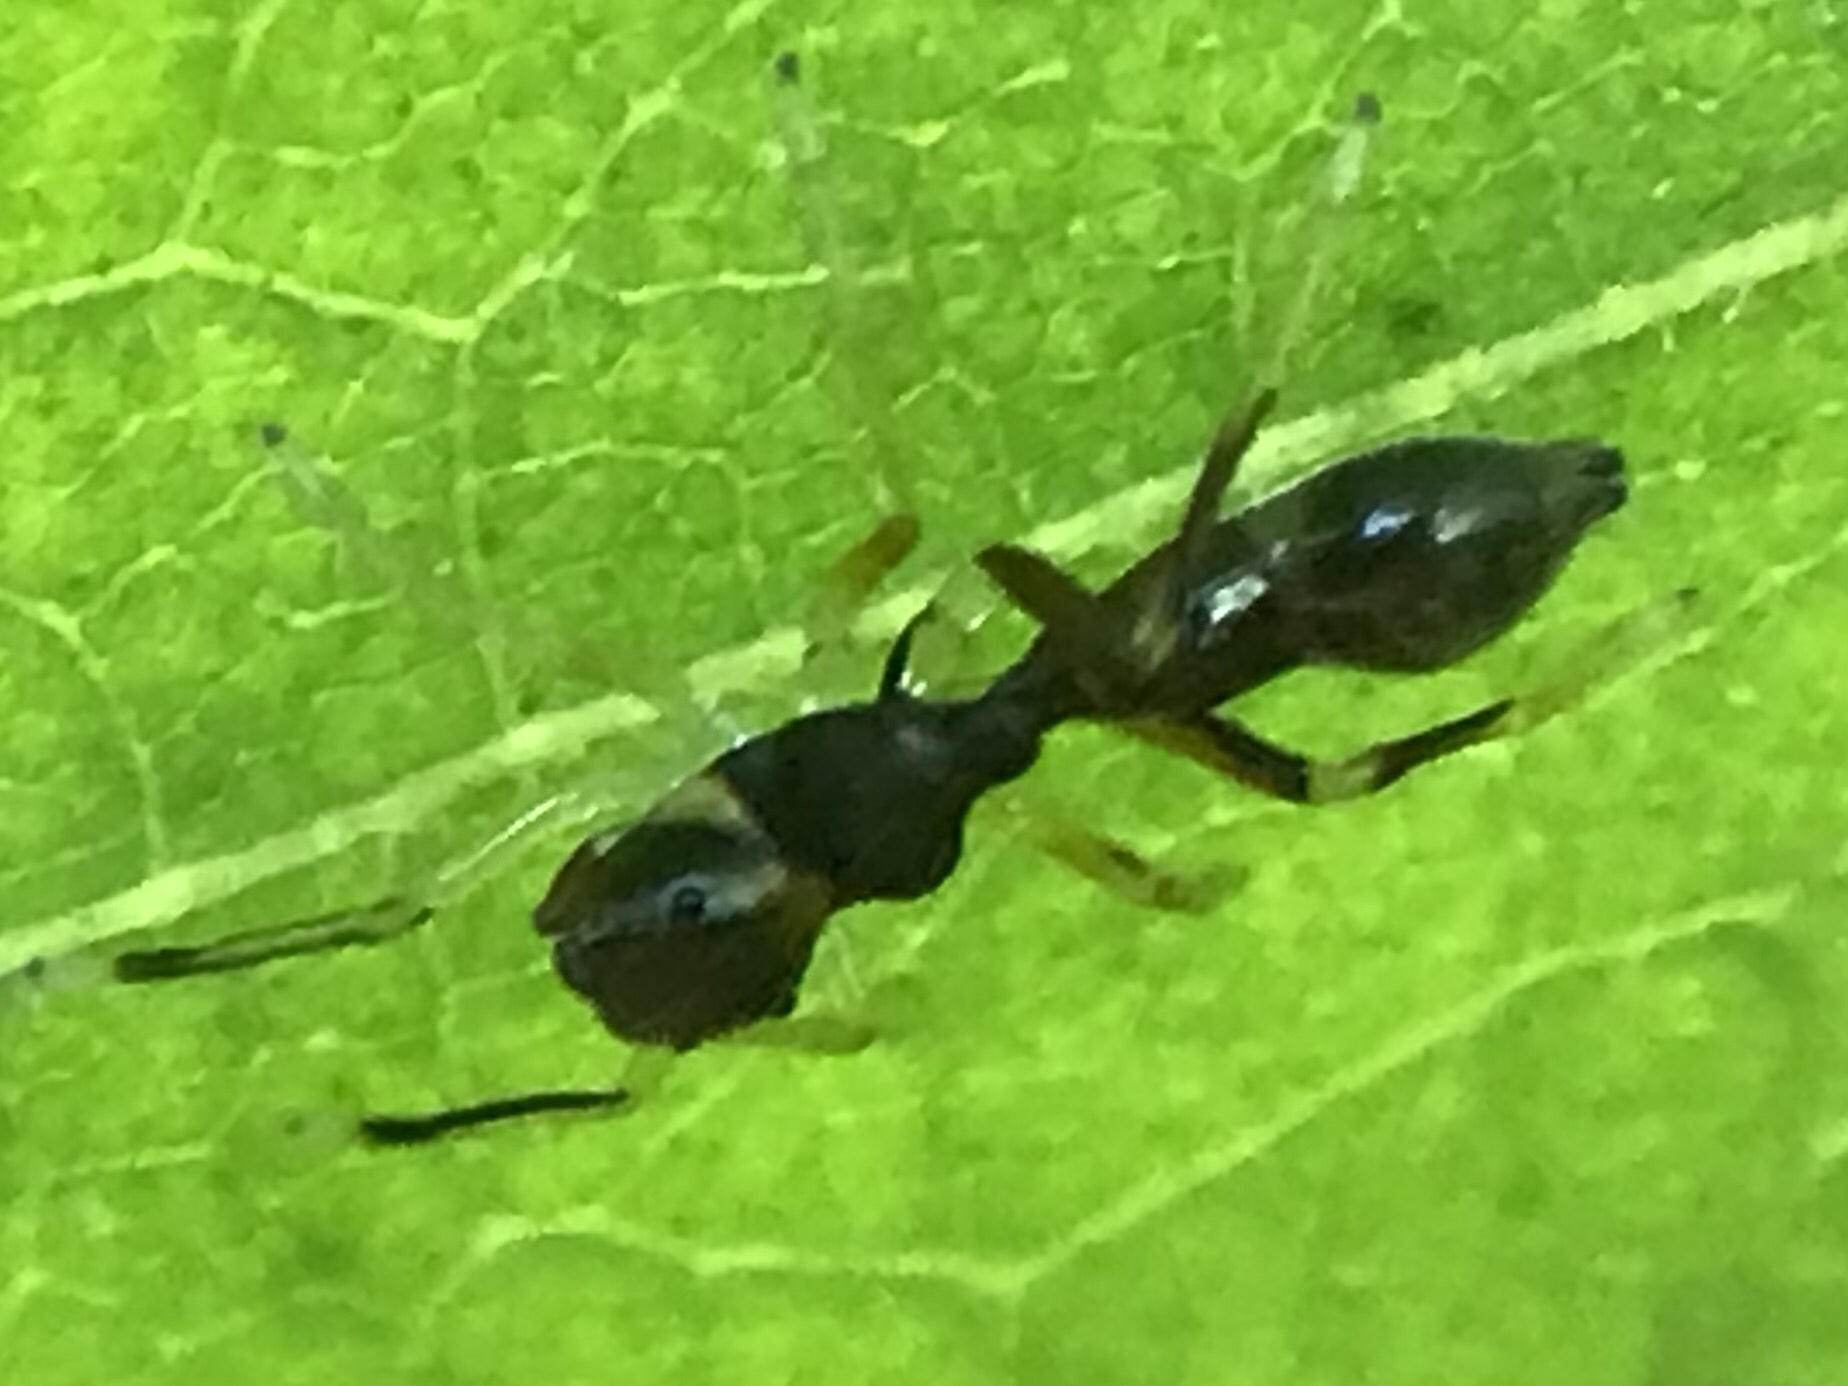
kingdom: Animalia
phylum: Arthropoda
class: Arachnida
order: Araneae
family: Salticidae
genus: Synemosyna
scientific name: Synemosyna formica
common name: Slender ant-mimic jumping spider
